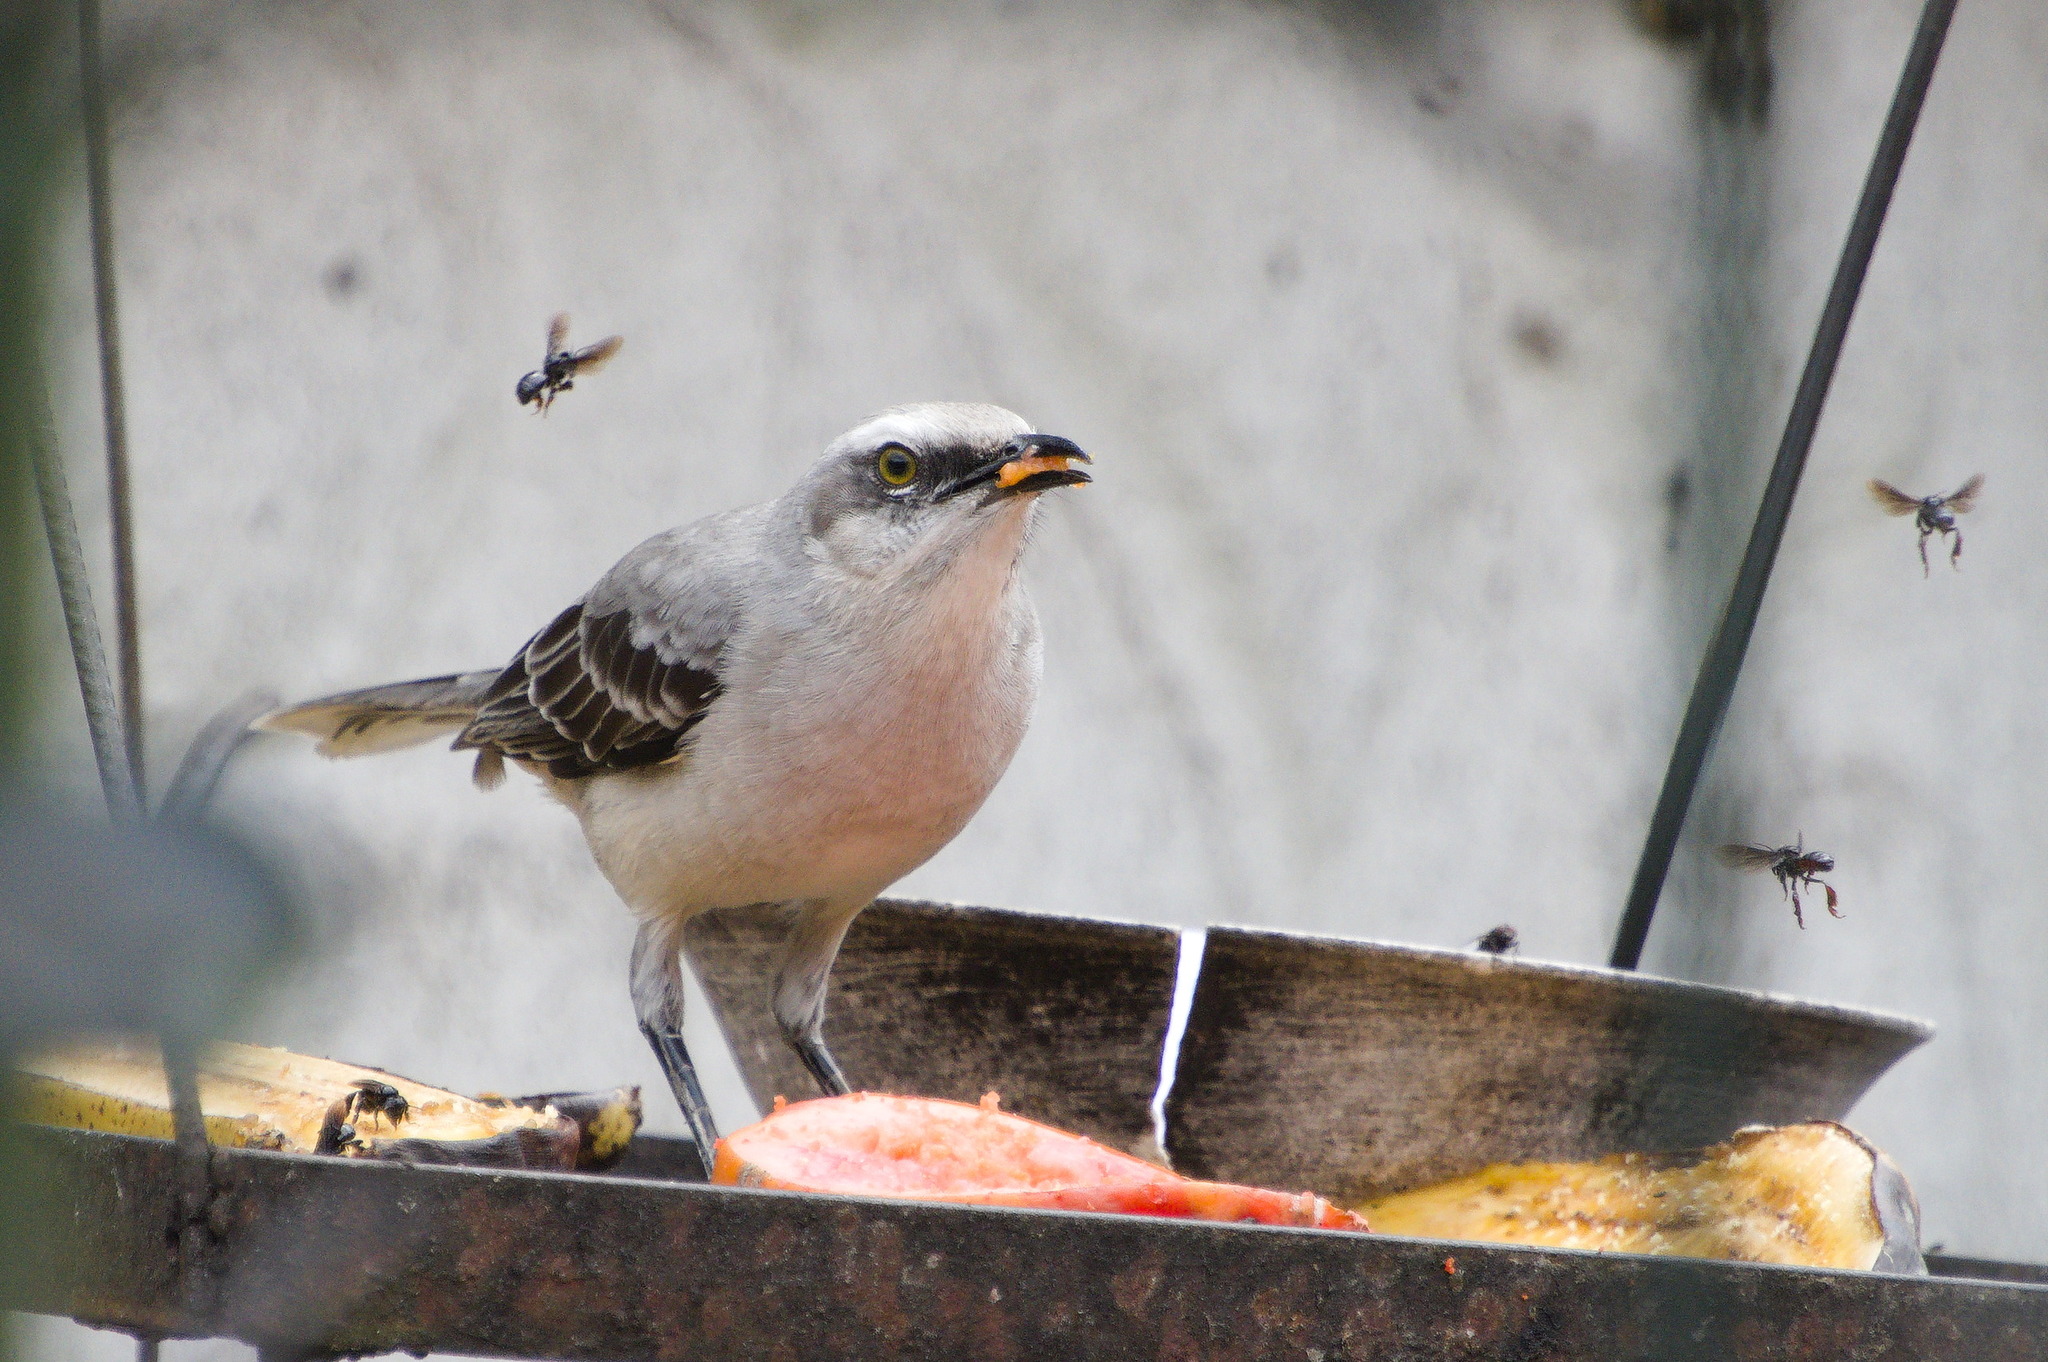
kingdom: Animalia
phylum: Chordata
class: Aves
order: Passeriformes
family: Mimidae
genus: Mimus
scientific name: Mimus gilvus
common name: Tropical mockingbird
